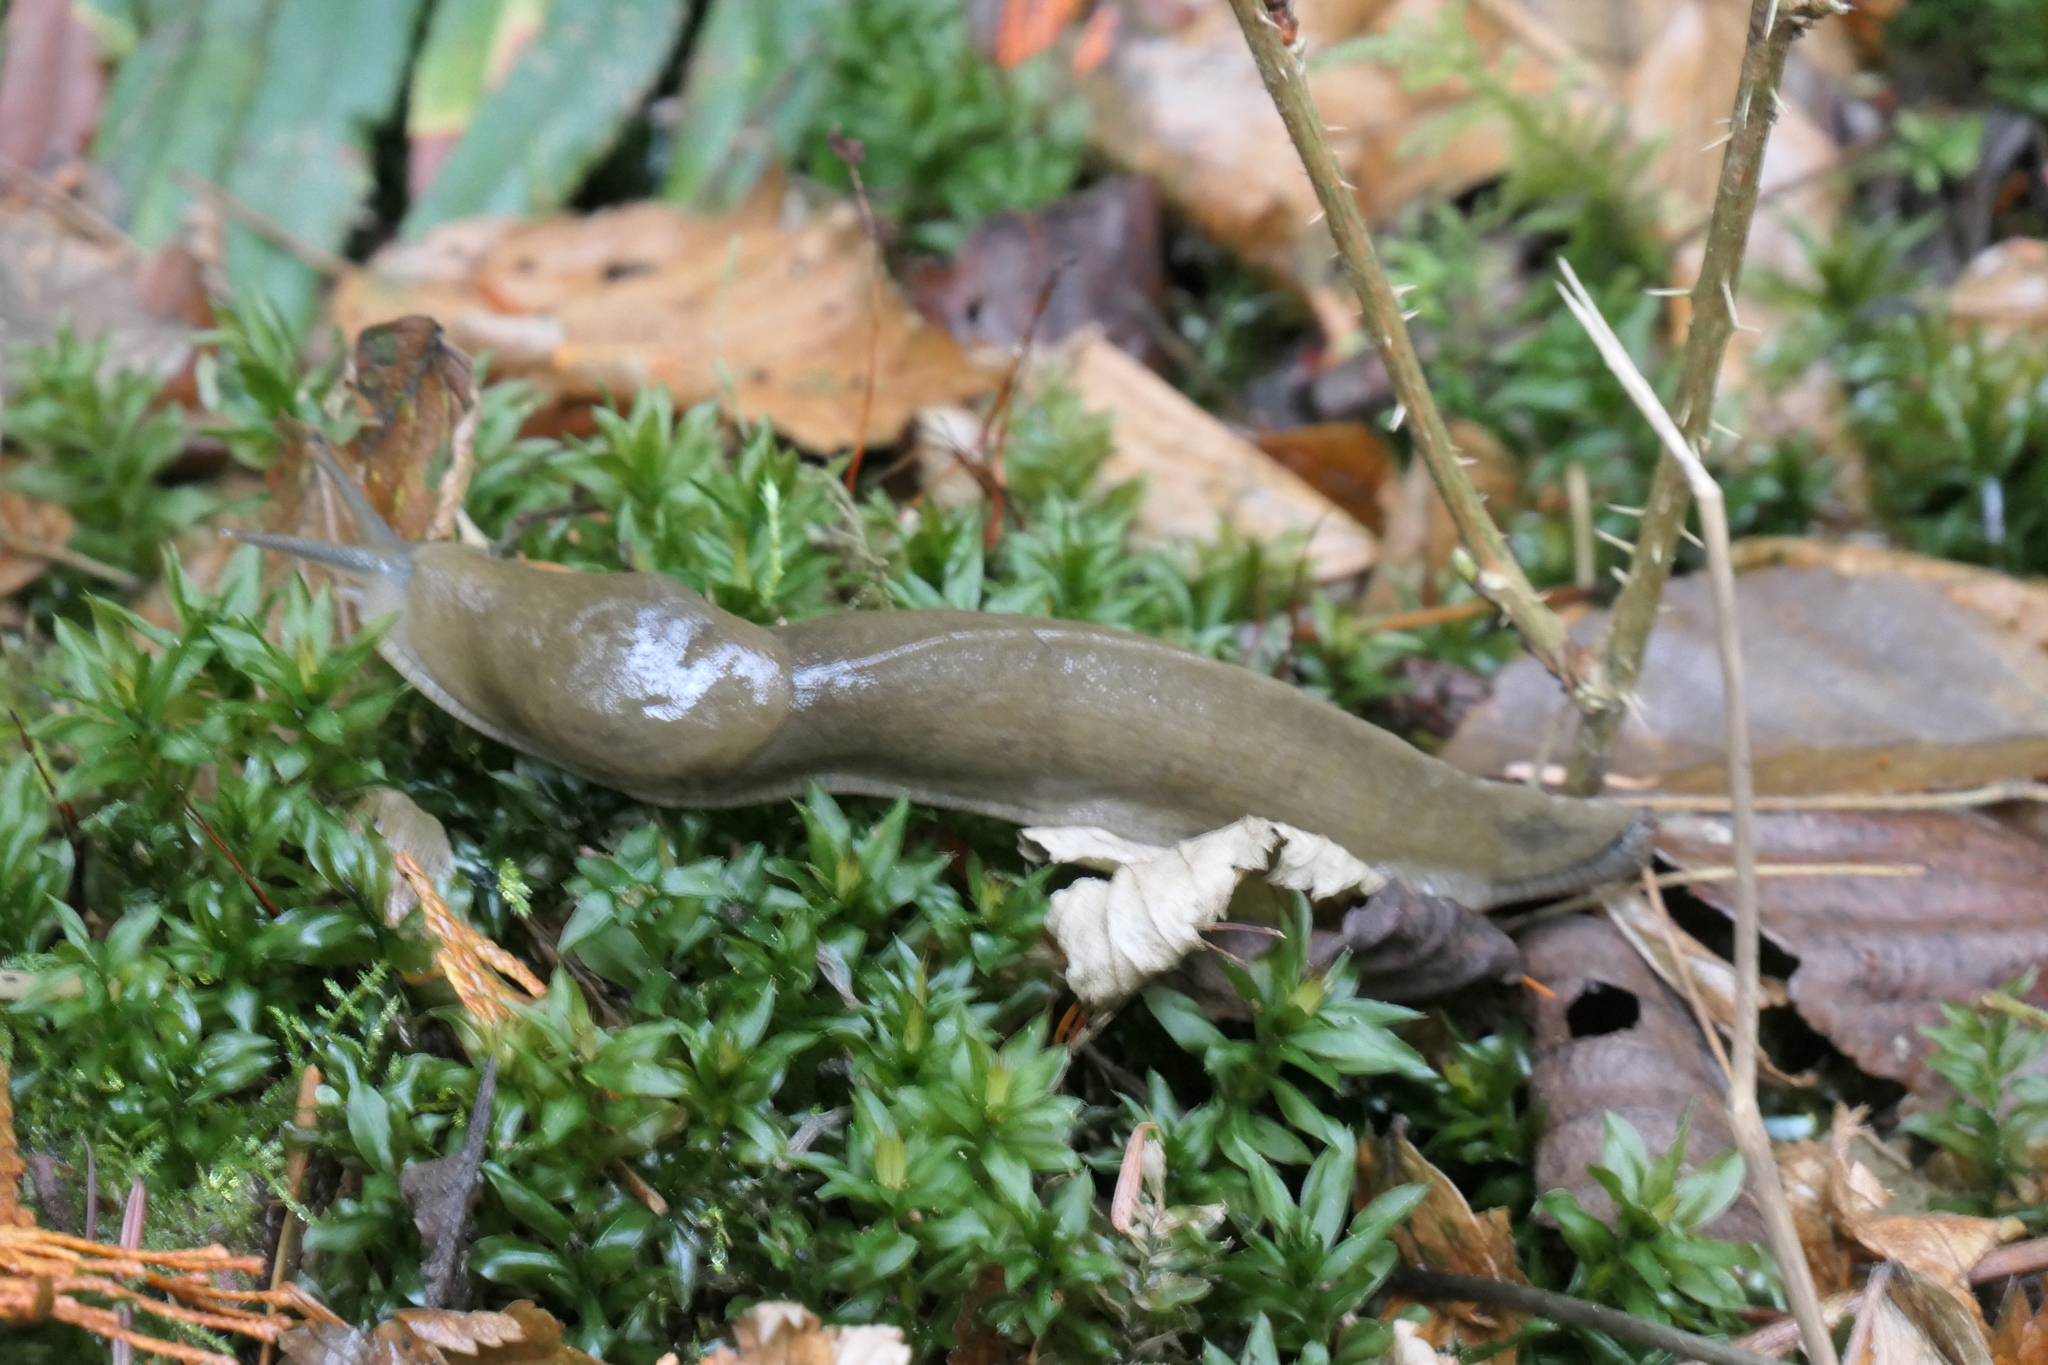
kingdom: Animalia
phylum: Mollusca
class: Gastropoda
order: Stylommatophora
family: Ariolimacidae
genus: Ariolimax
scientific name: Ariolimax columbianus
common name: Pacific banana slug
